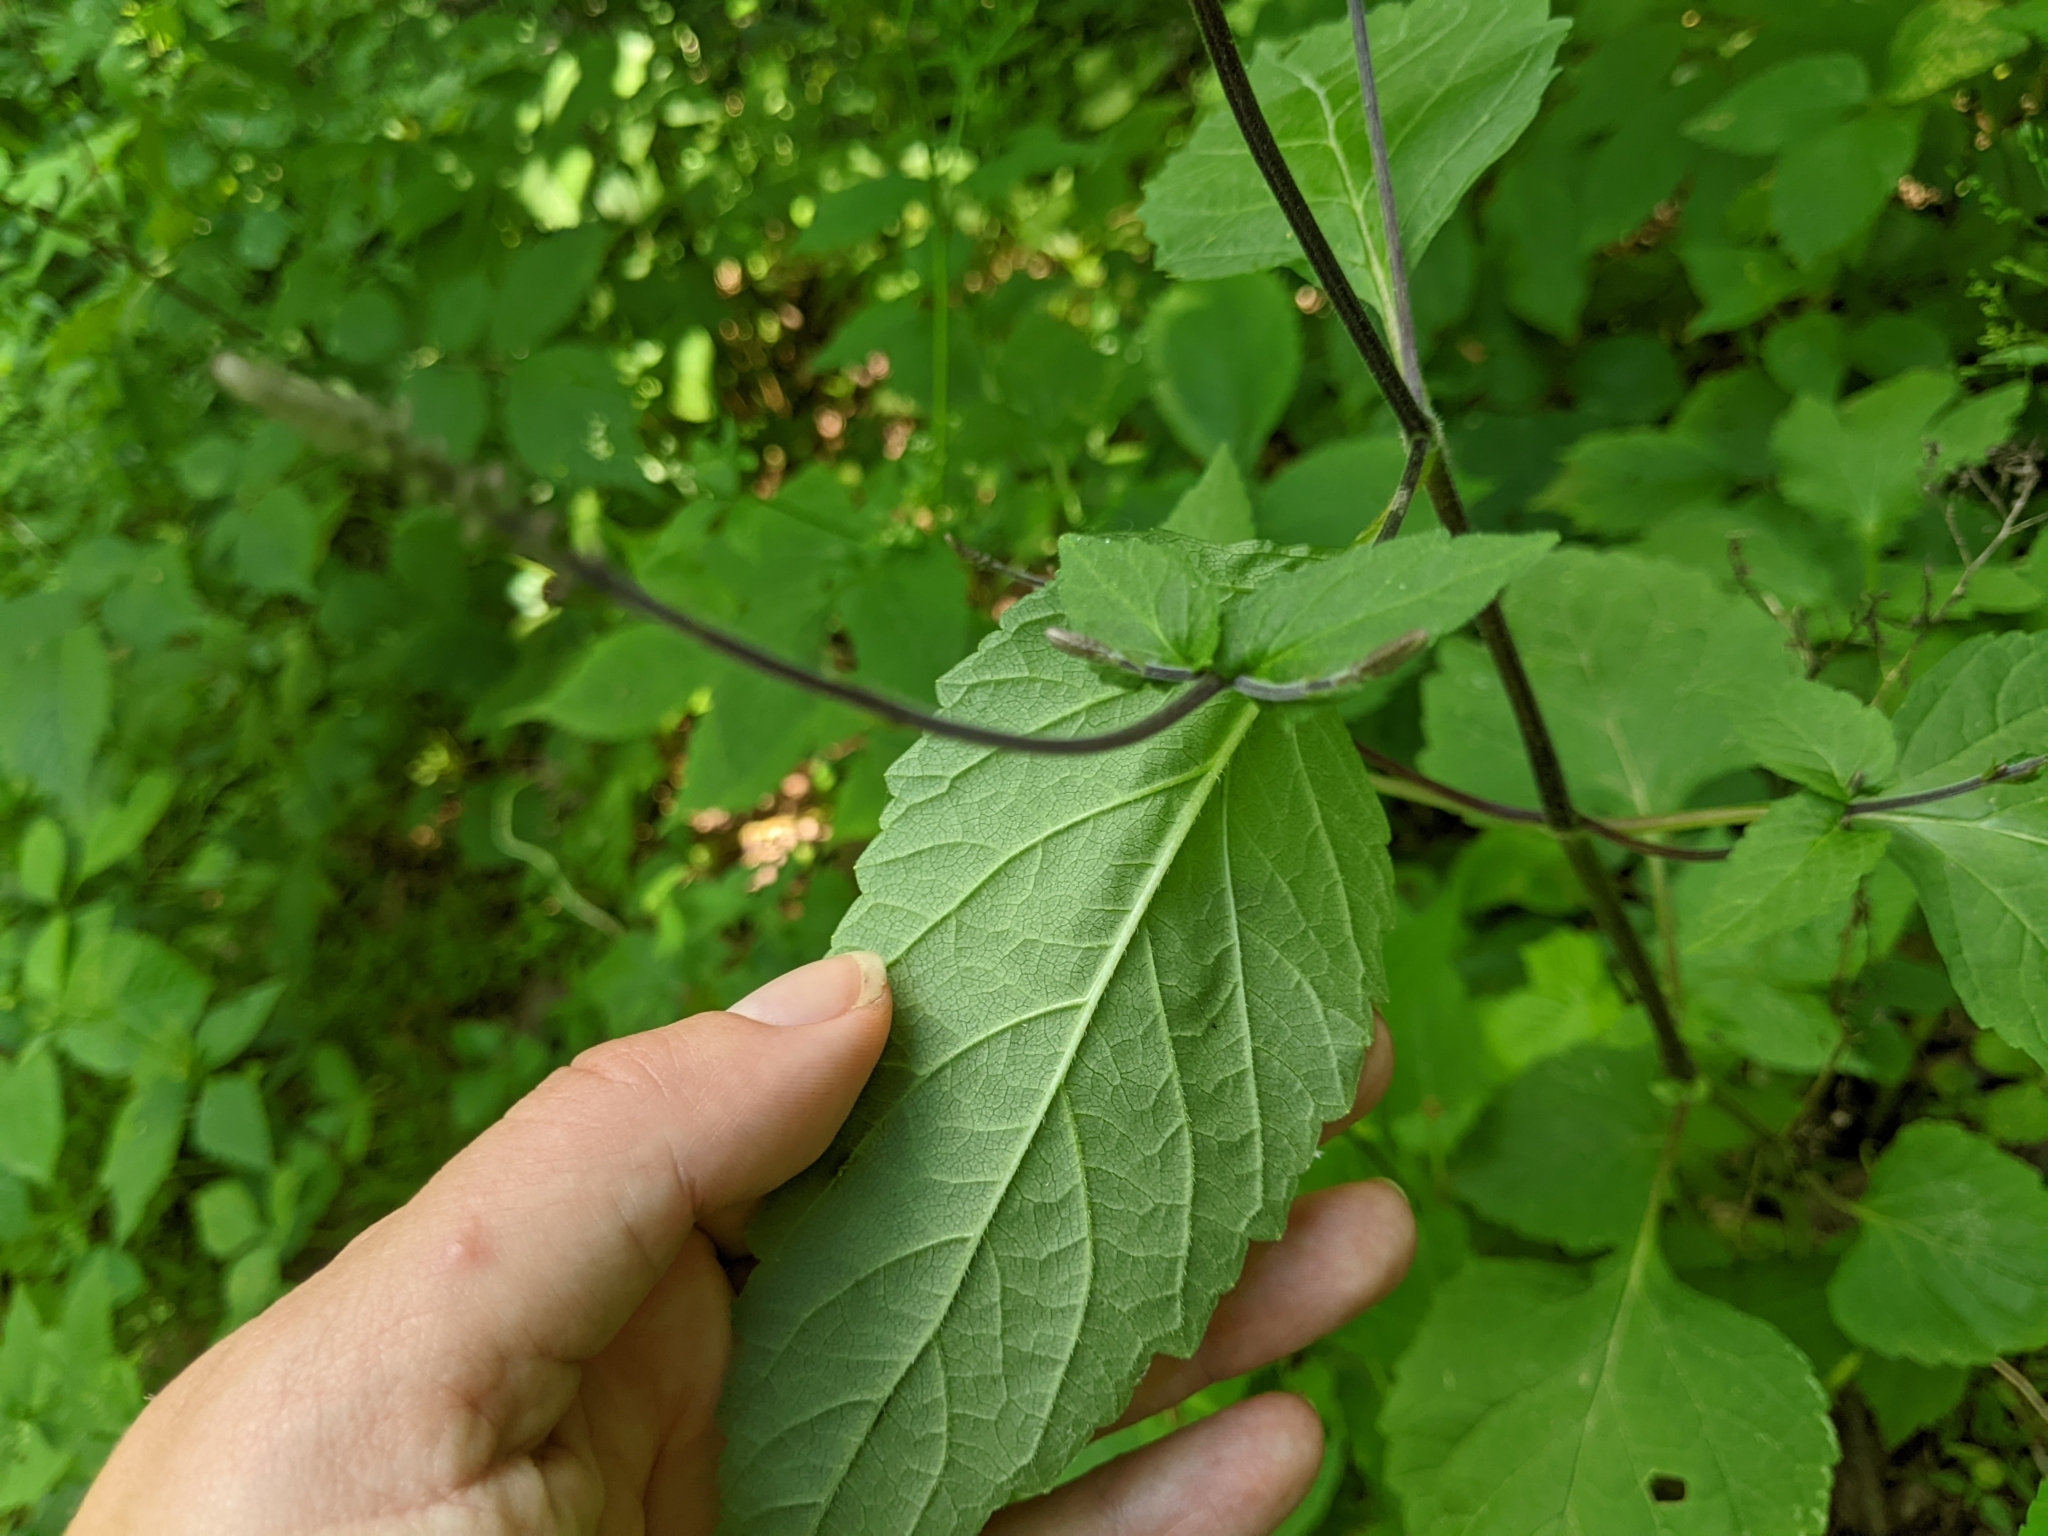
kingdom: Plantae
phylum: Tracheophyta
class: Magnoliopsida
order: Lamiales
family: Phrymaceae
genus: Phryma
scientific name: Phryma leptostachya
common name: American lopseed
